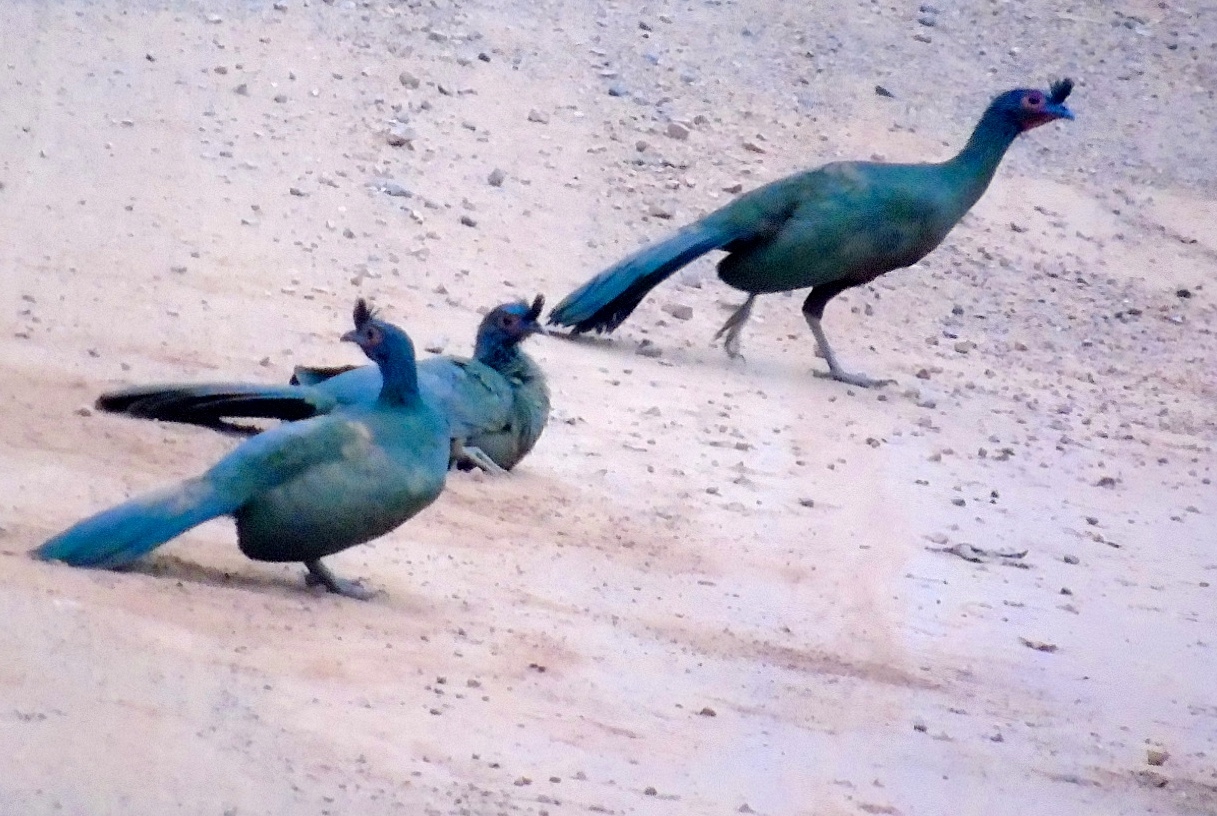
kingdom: Animalia
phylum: Chordata
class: Aves
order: Galliformes
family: Cracidae
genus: Ortalis
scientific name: Ortalis wagleri
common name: Rufous-bellied chachalaca
